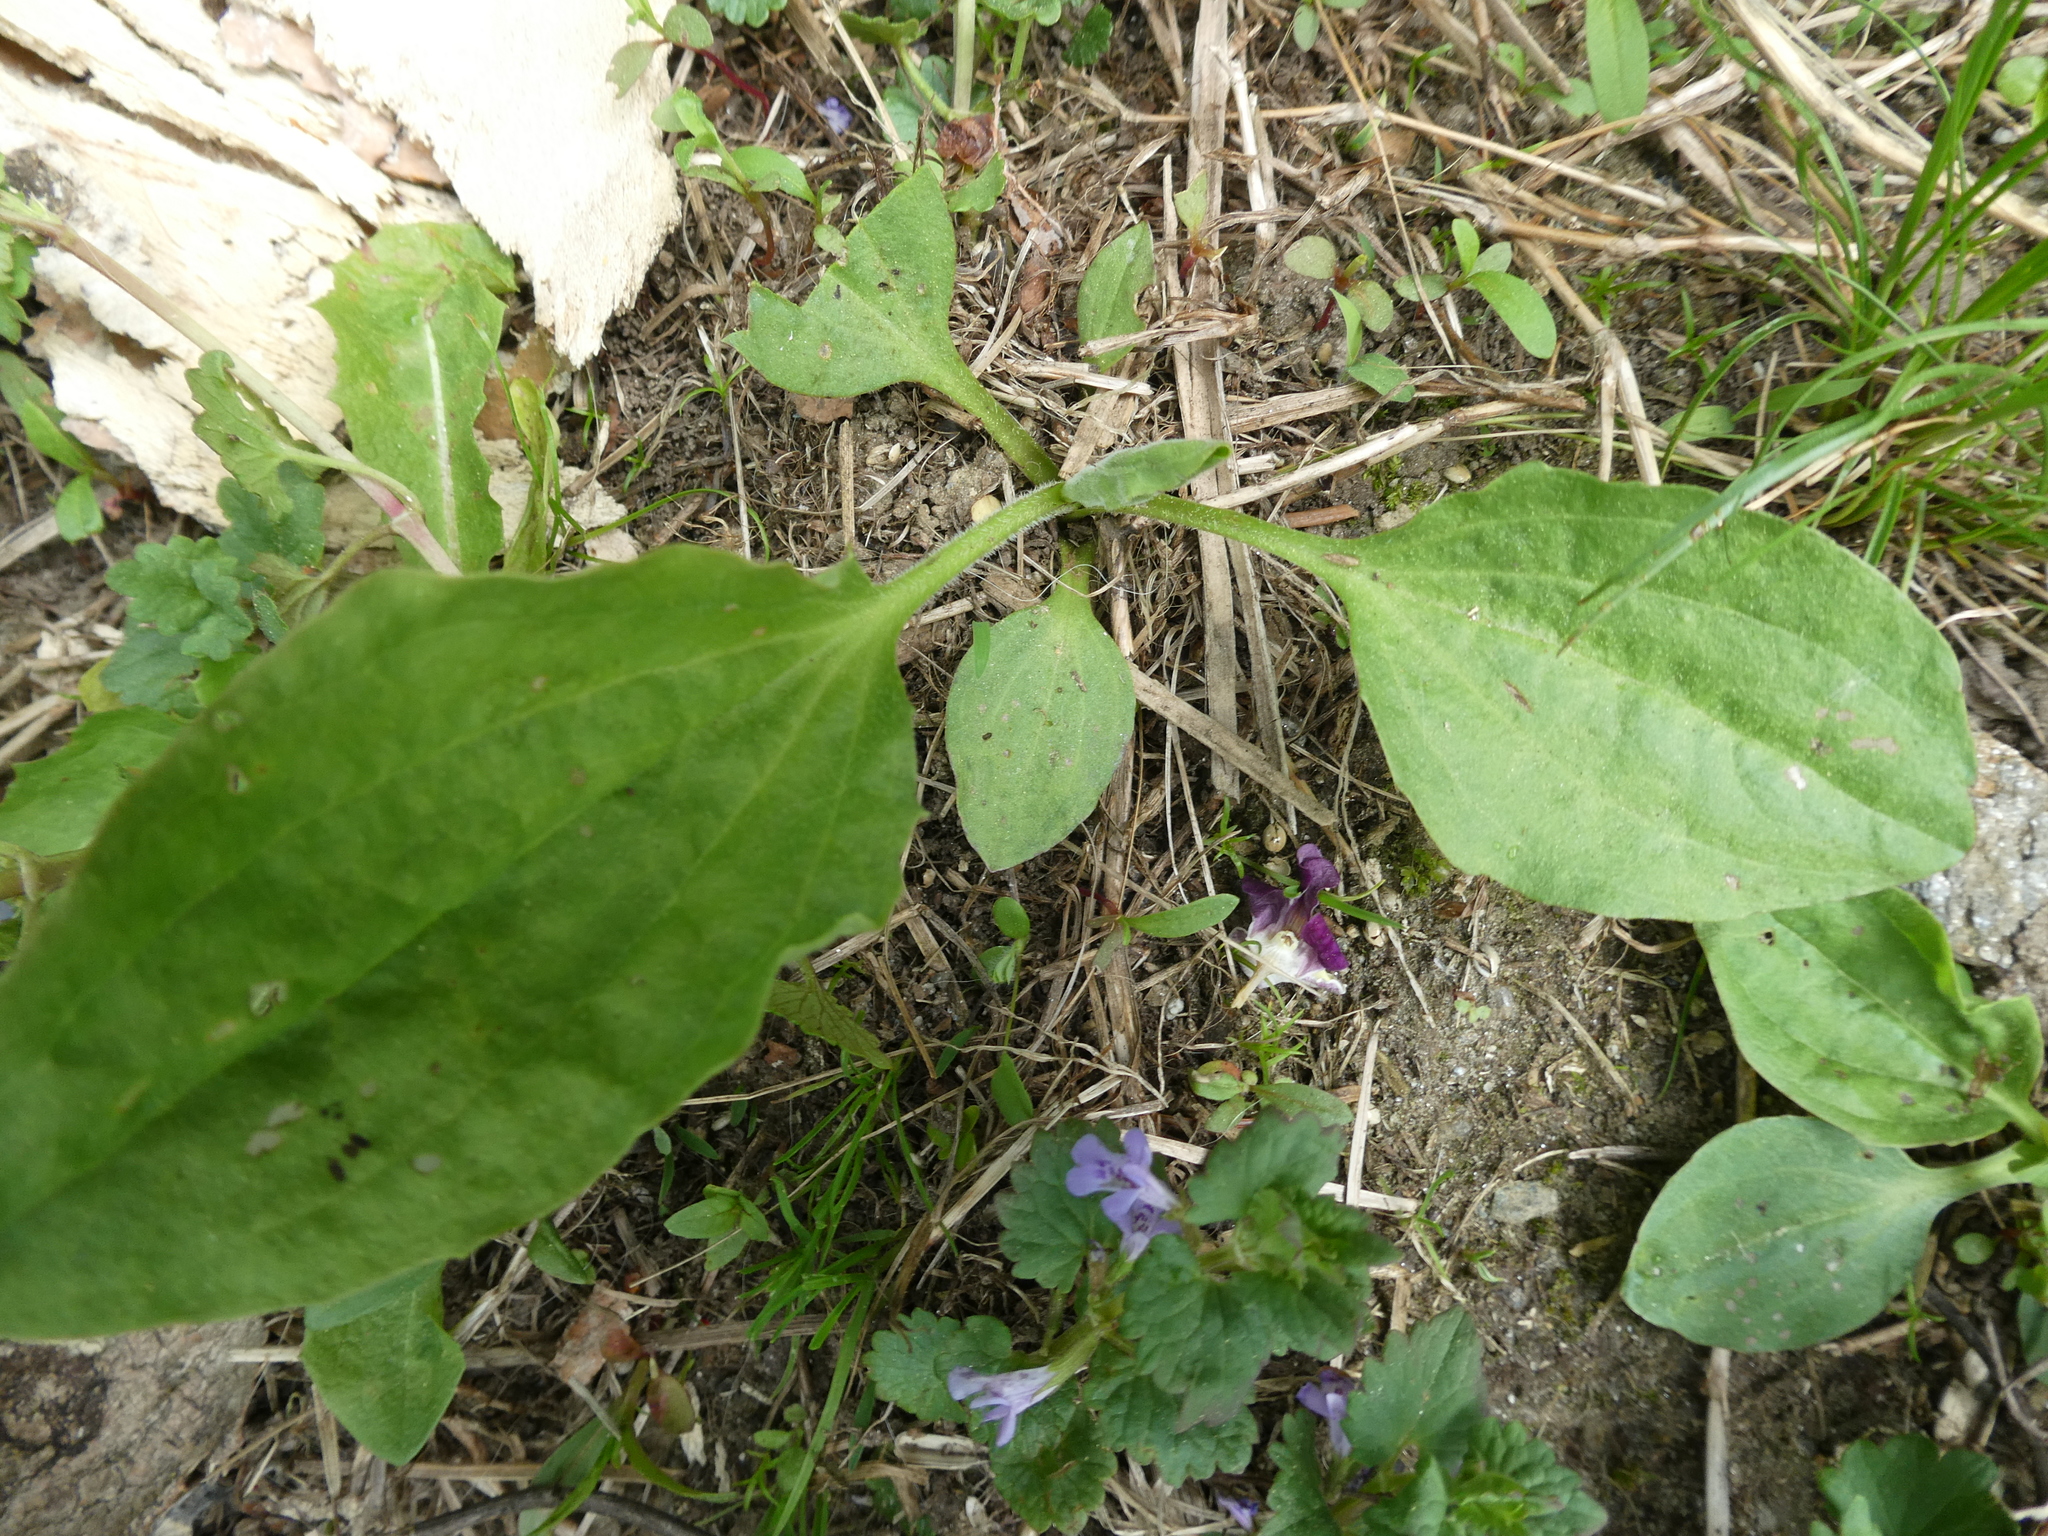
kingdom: Plantae
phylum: Tracheophyta
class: Magnoliopsida
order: Lamiales
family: Plantaginaceae
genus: Plantago
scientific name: Plantago major
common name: Common plantain
